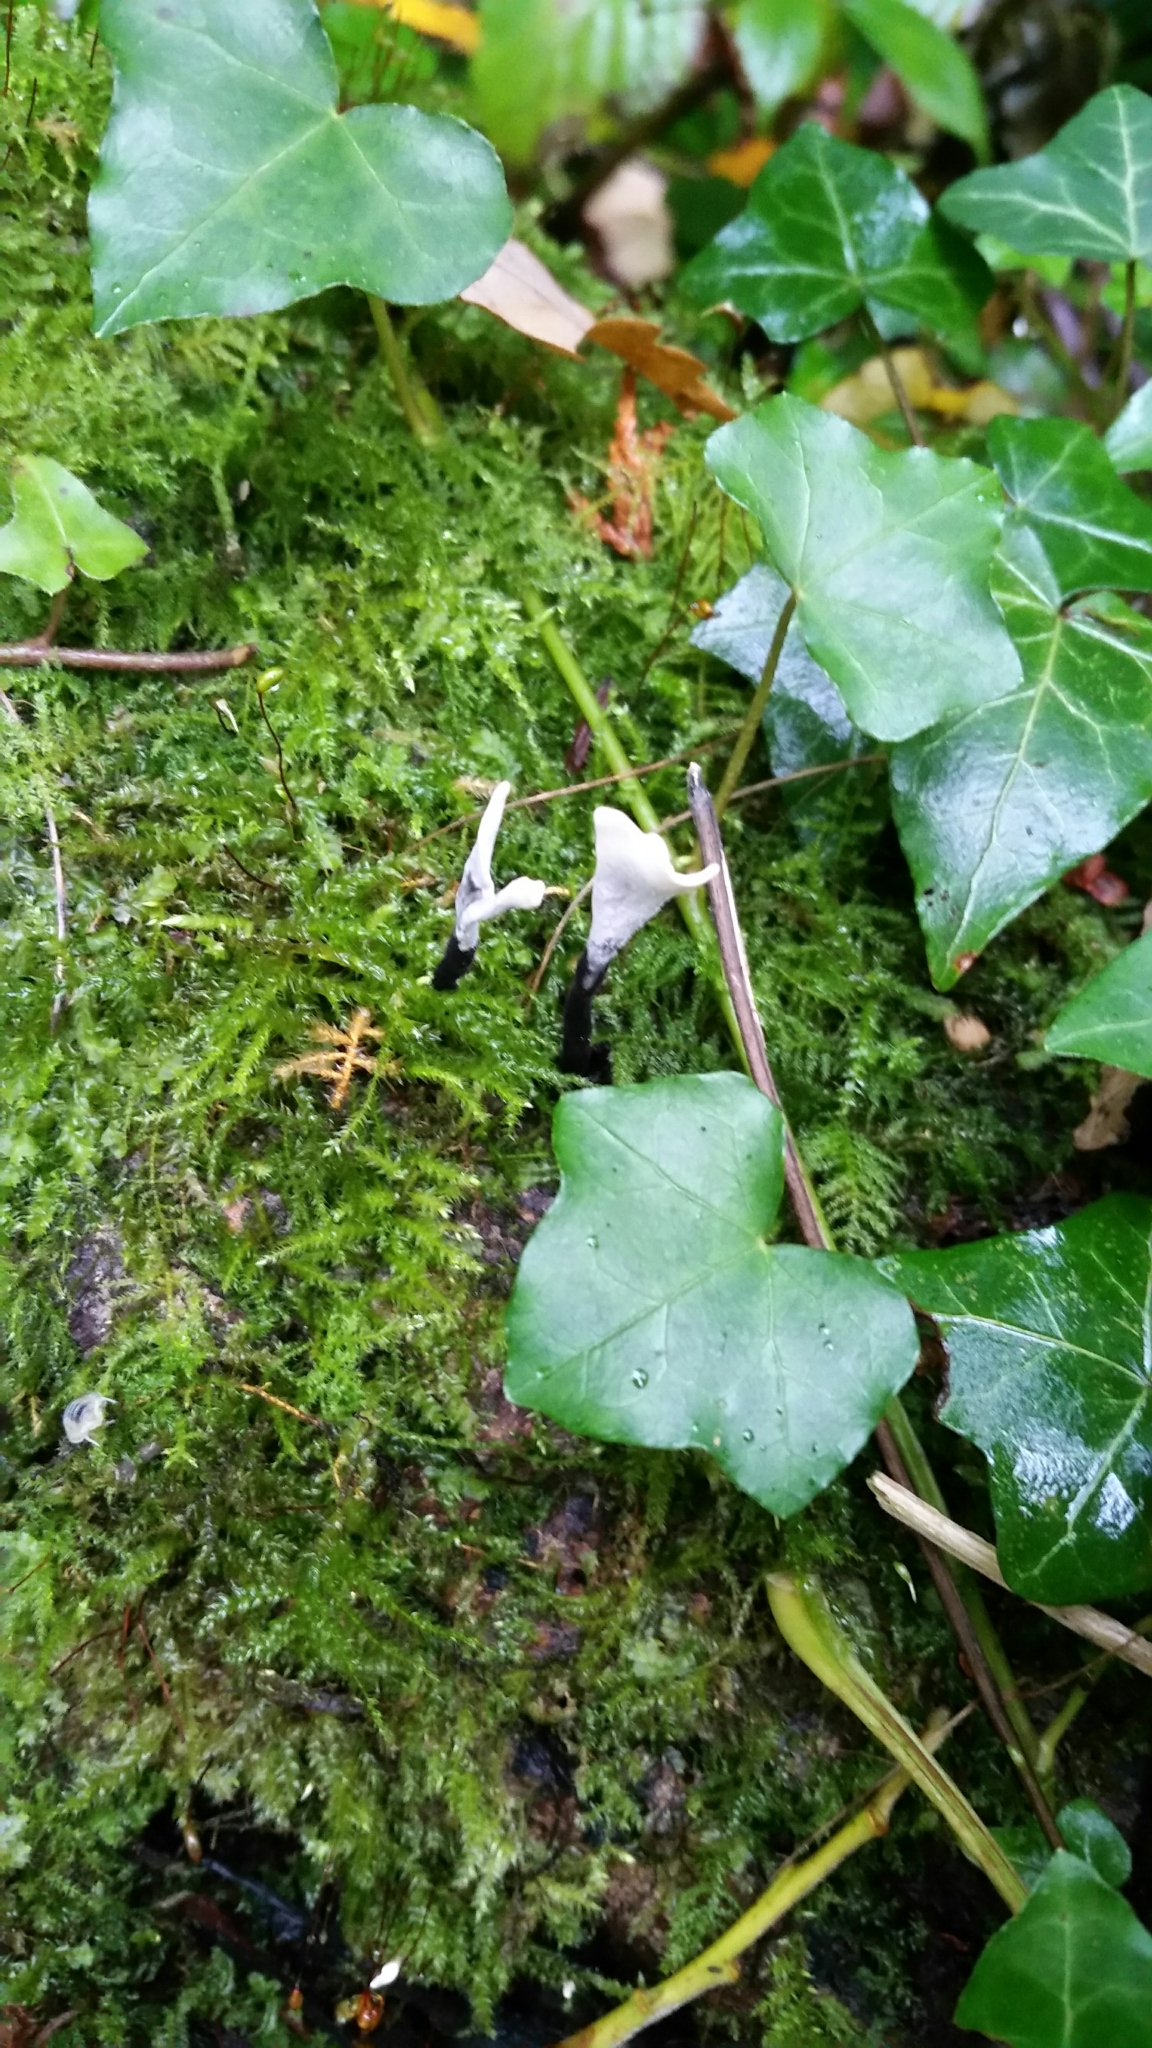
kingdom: Fungi
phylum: Ascomycota
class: Sordariomycetes
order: Xylariales
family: Xylariaceae
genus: Xylaria
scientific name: Xylaria hypoxylon
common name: Candle-snuff fungus
